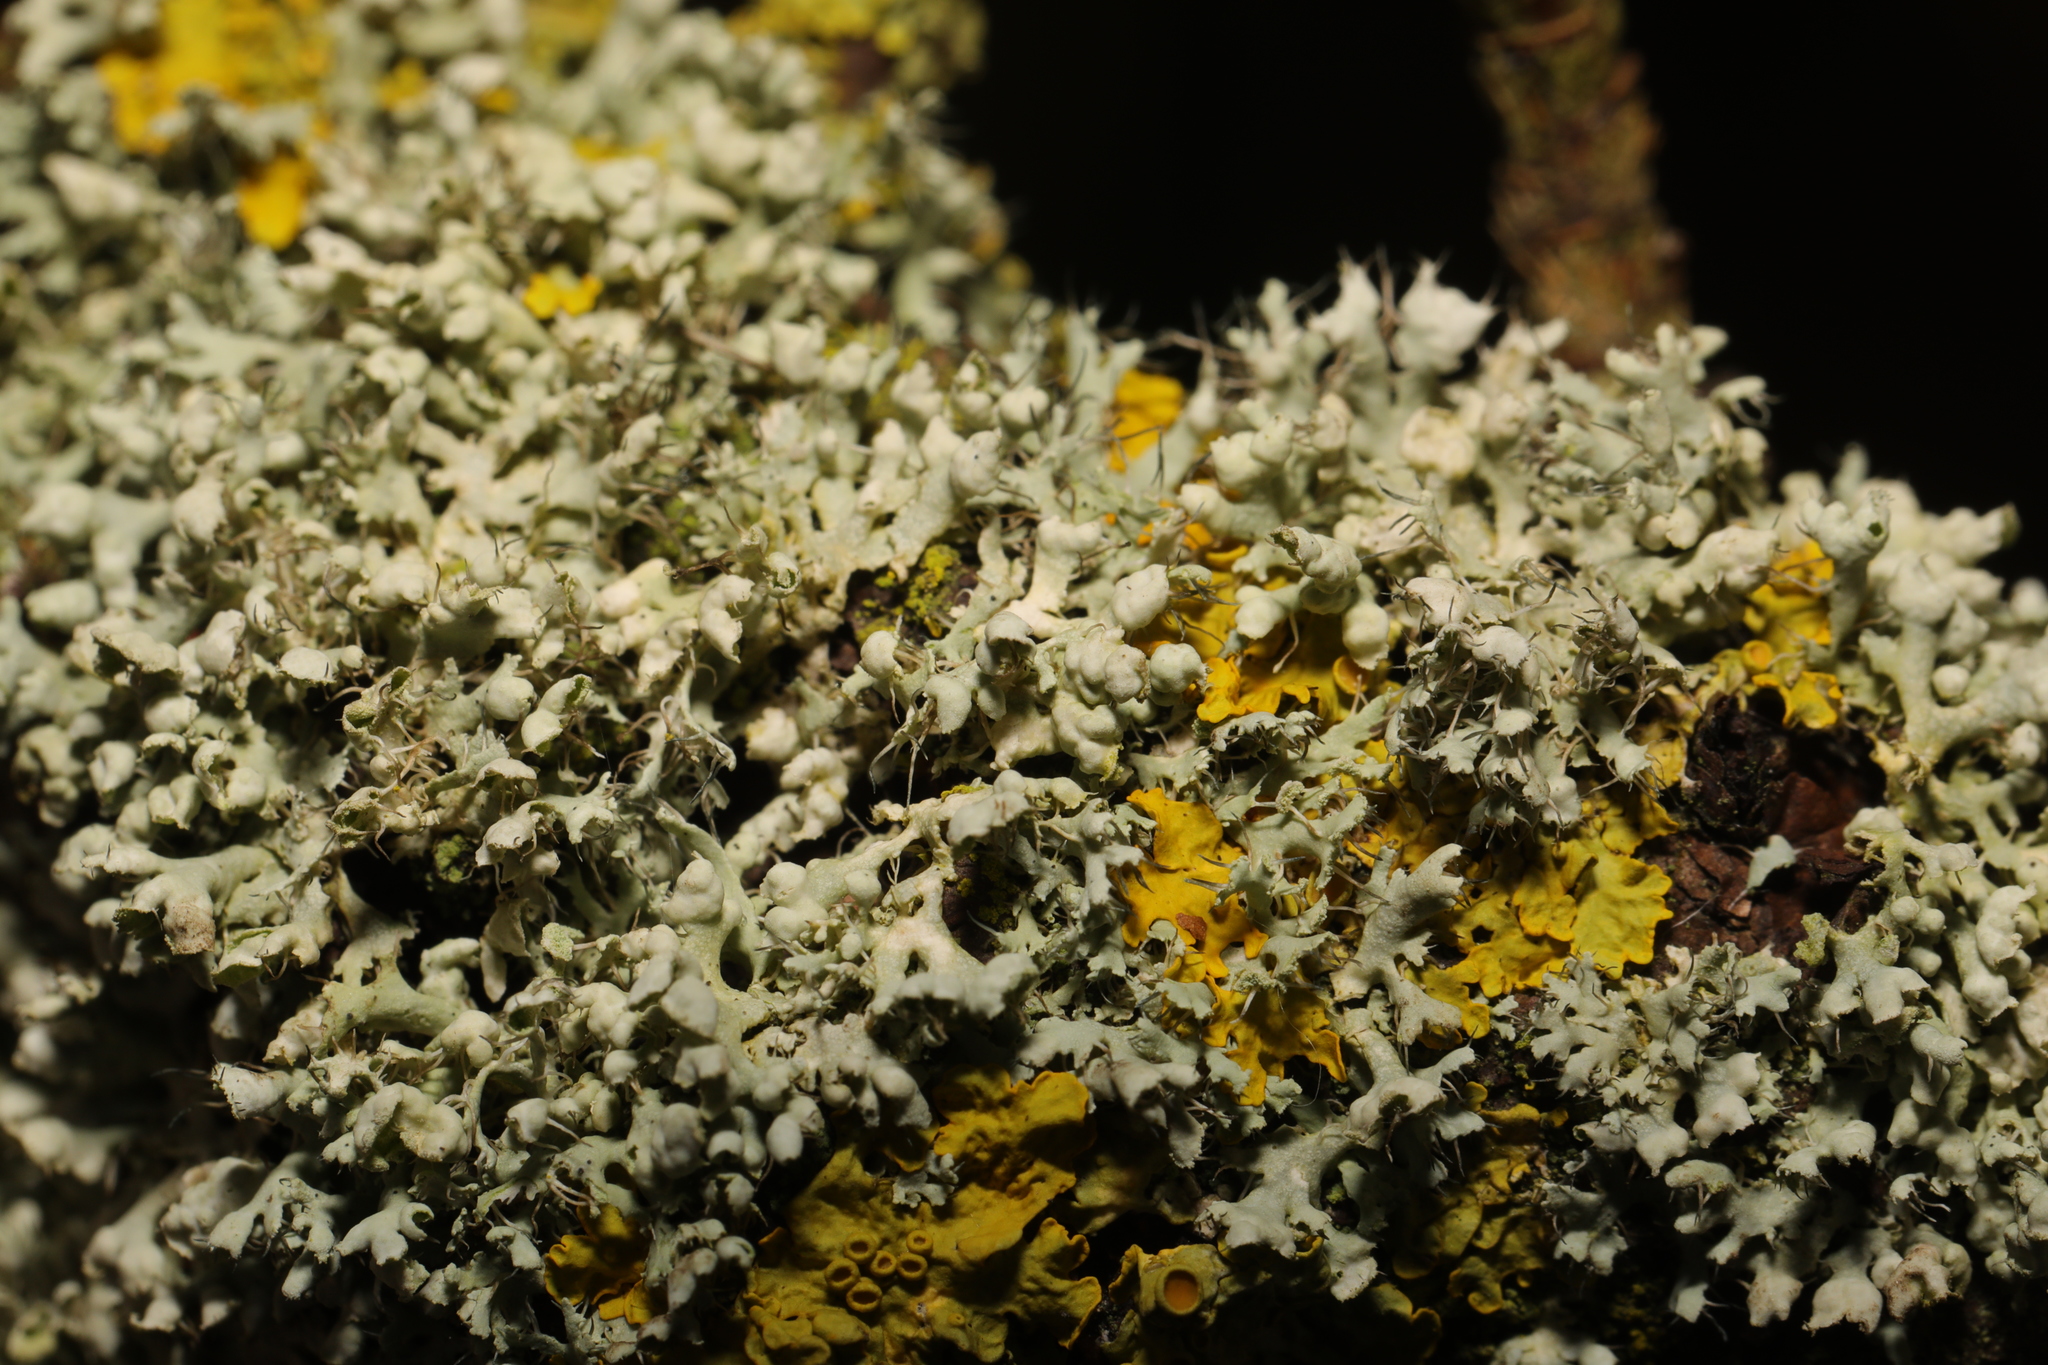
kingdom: Fungi
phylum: Ascomycota
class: Lecanoromycetes
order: Caliciales
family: Physciaceae
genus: Physcia
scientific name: Physcia adscendens
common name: Hooded rosette lichen
